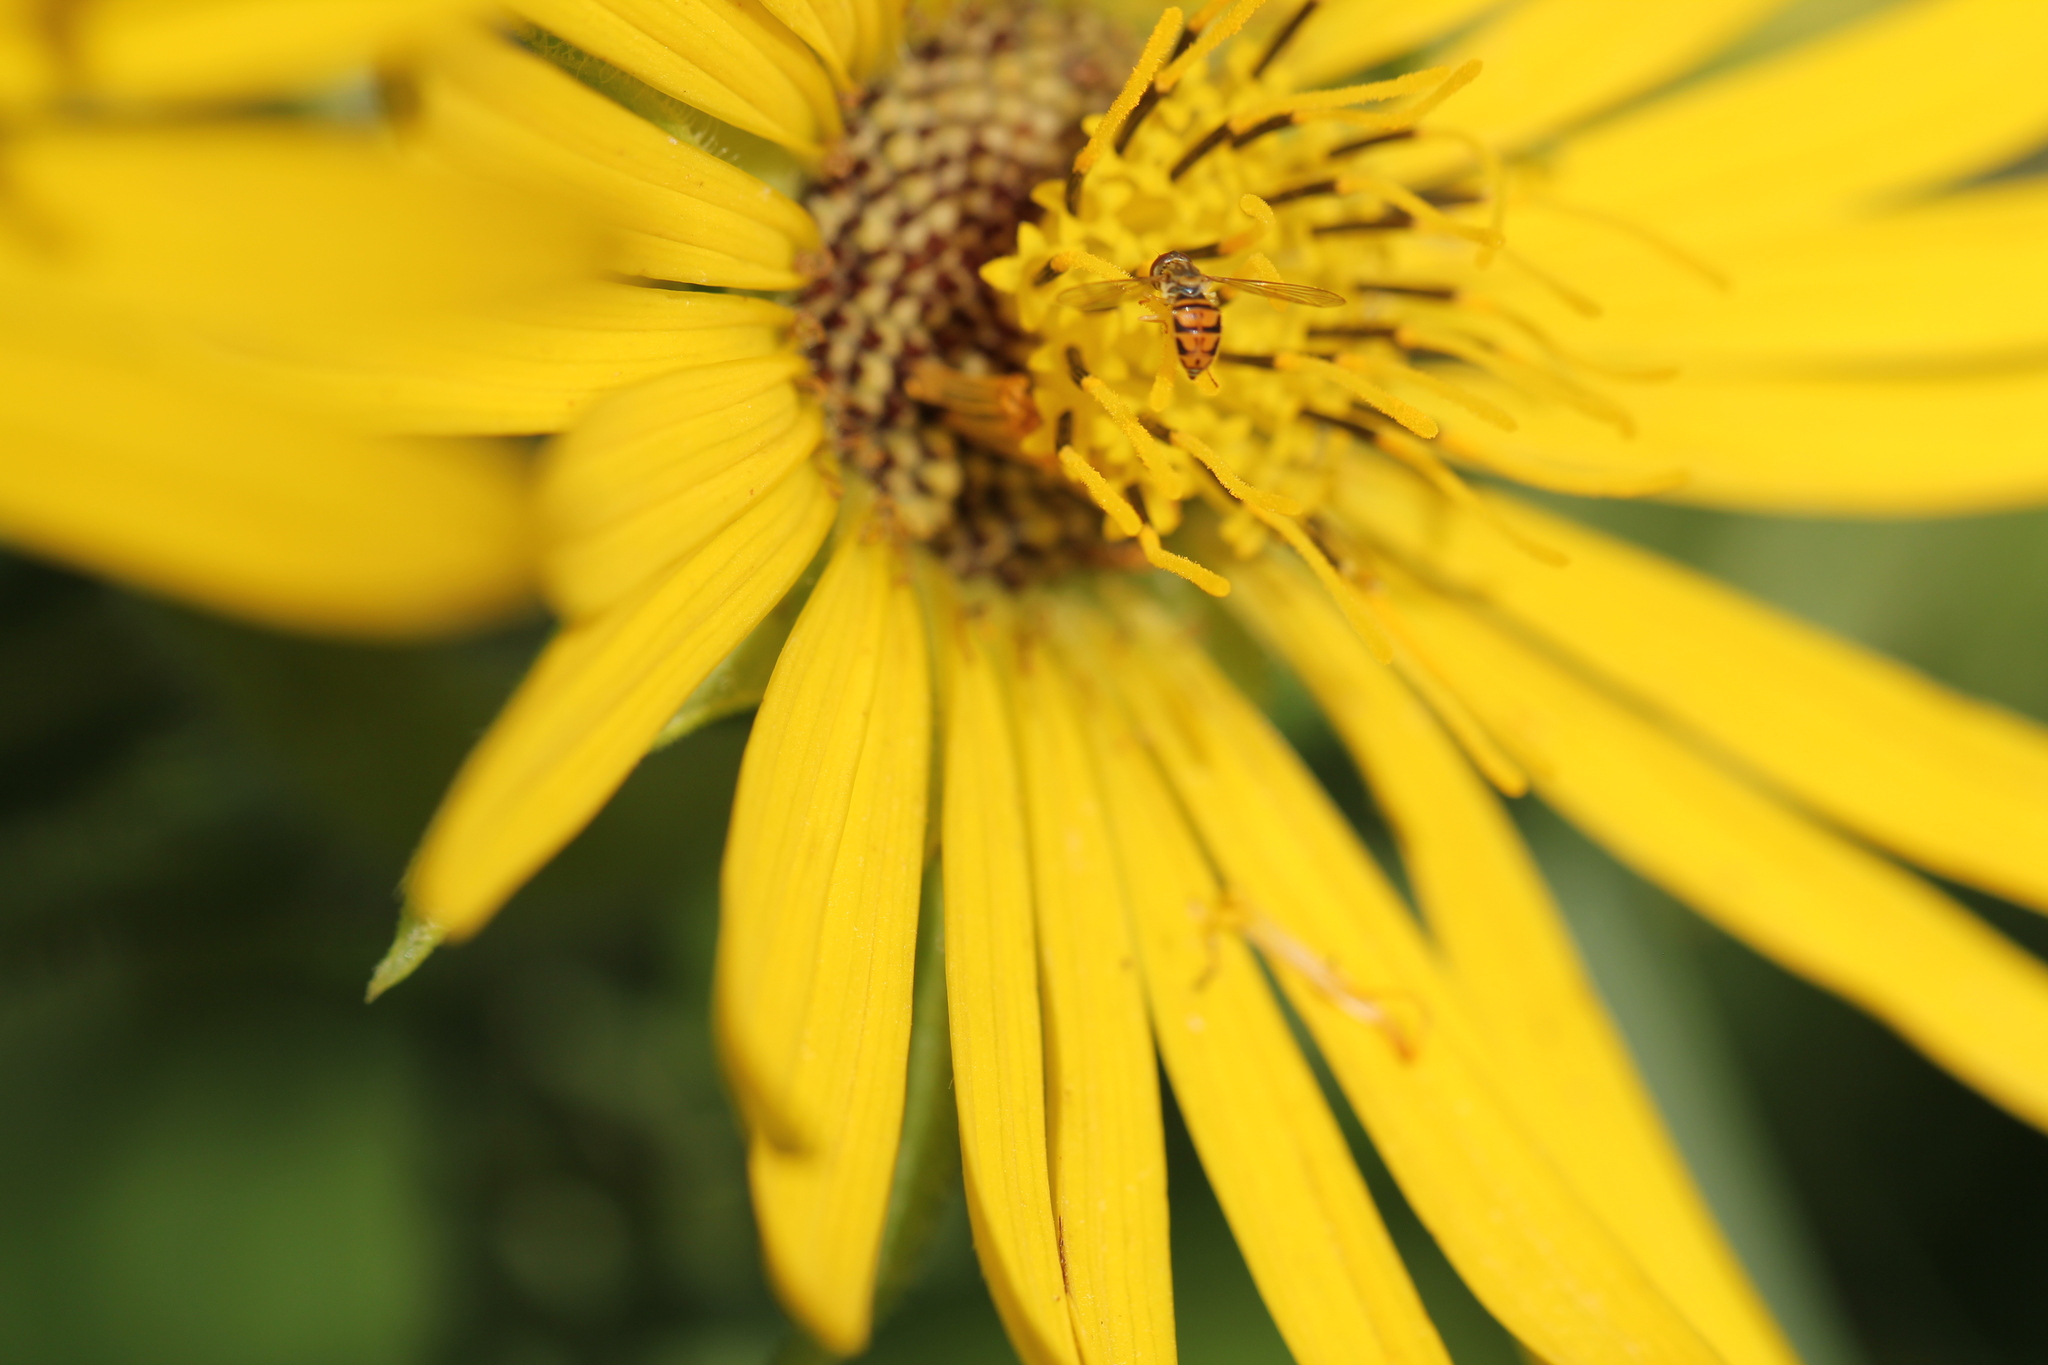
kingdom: Animalia
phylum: Arthropoda
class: Insecta
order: Diptera
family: Syrphidae
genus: Toxomerus
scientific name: Toxomerus marginatus
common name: Syrphid fly
